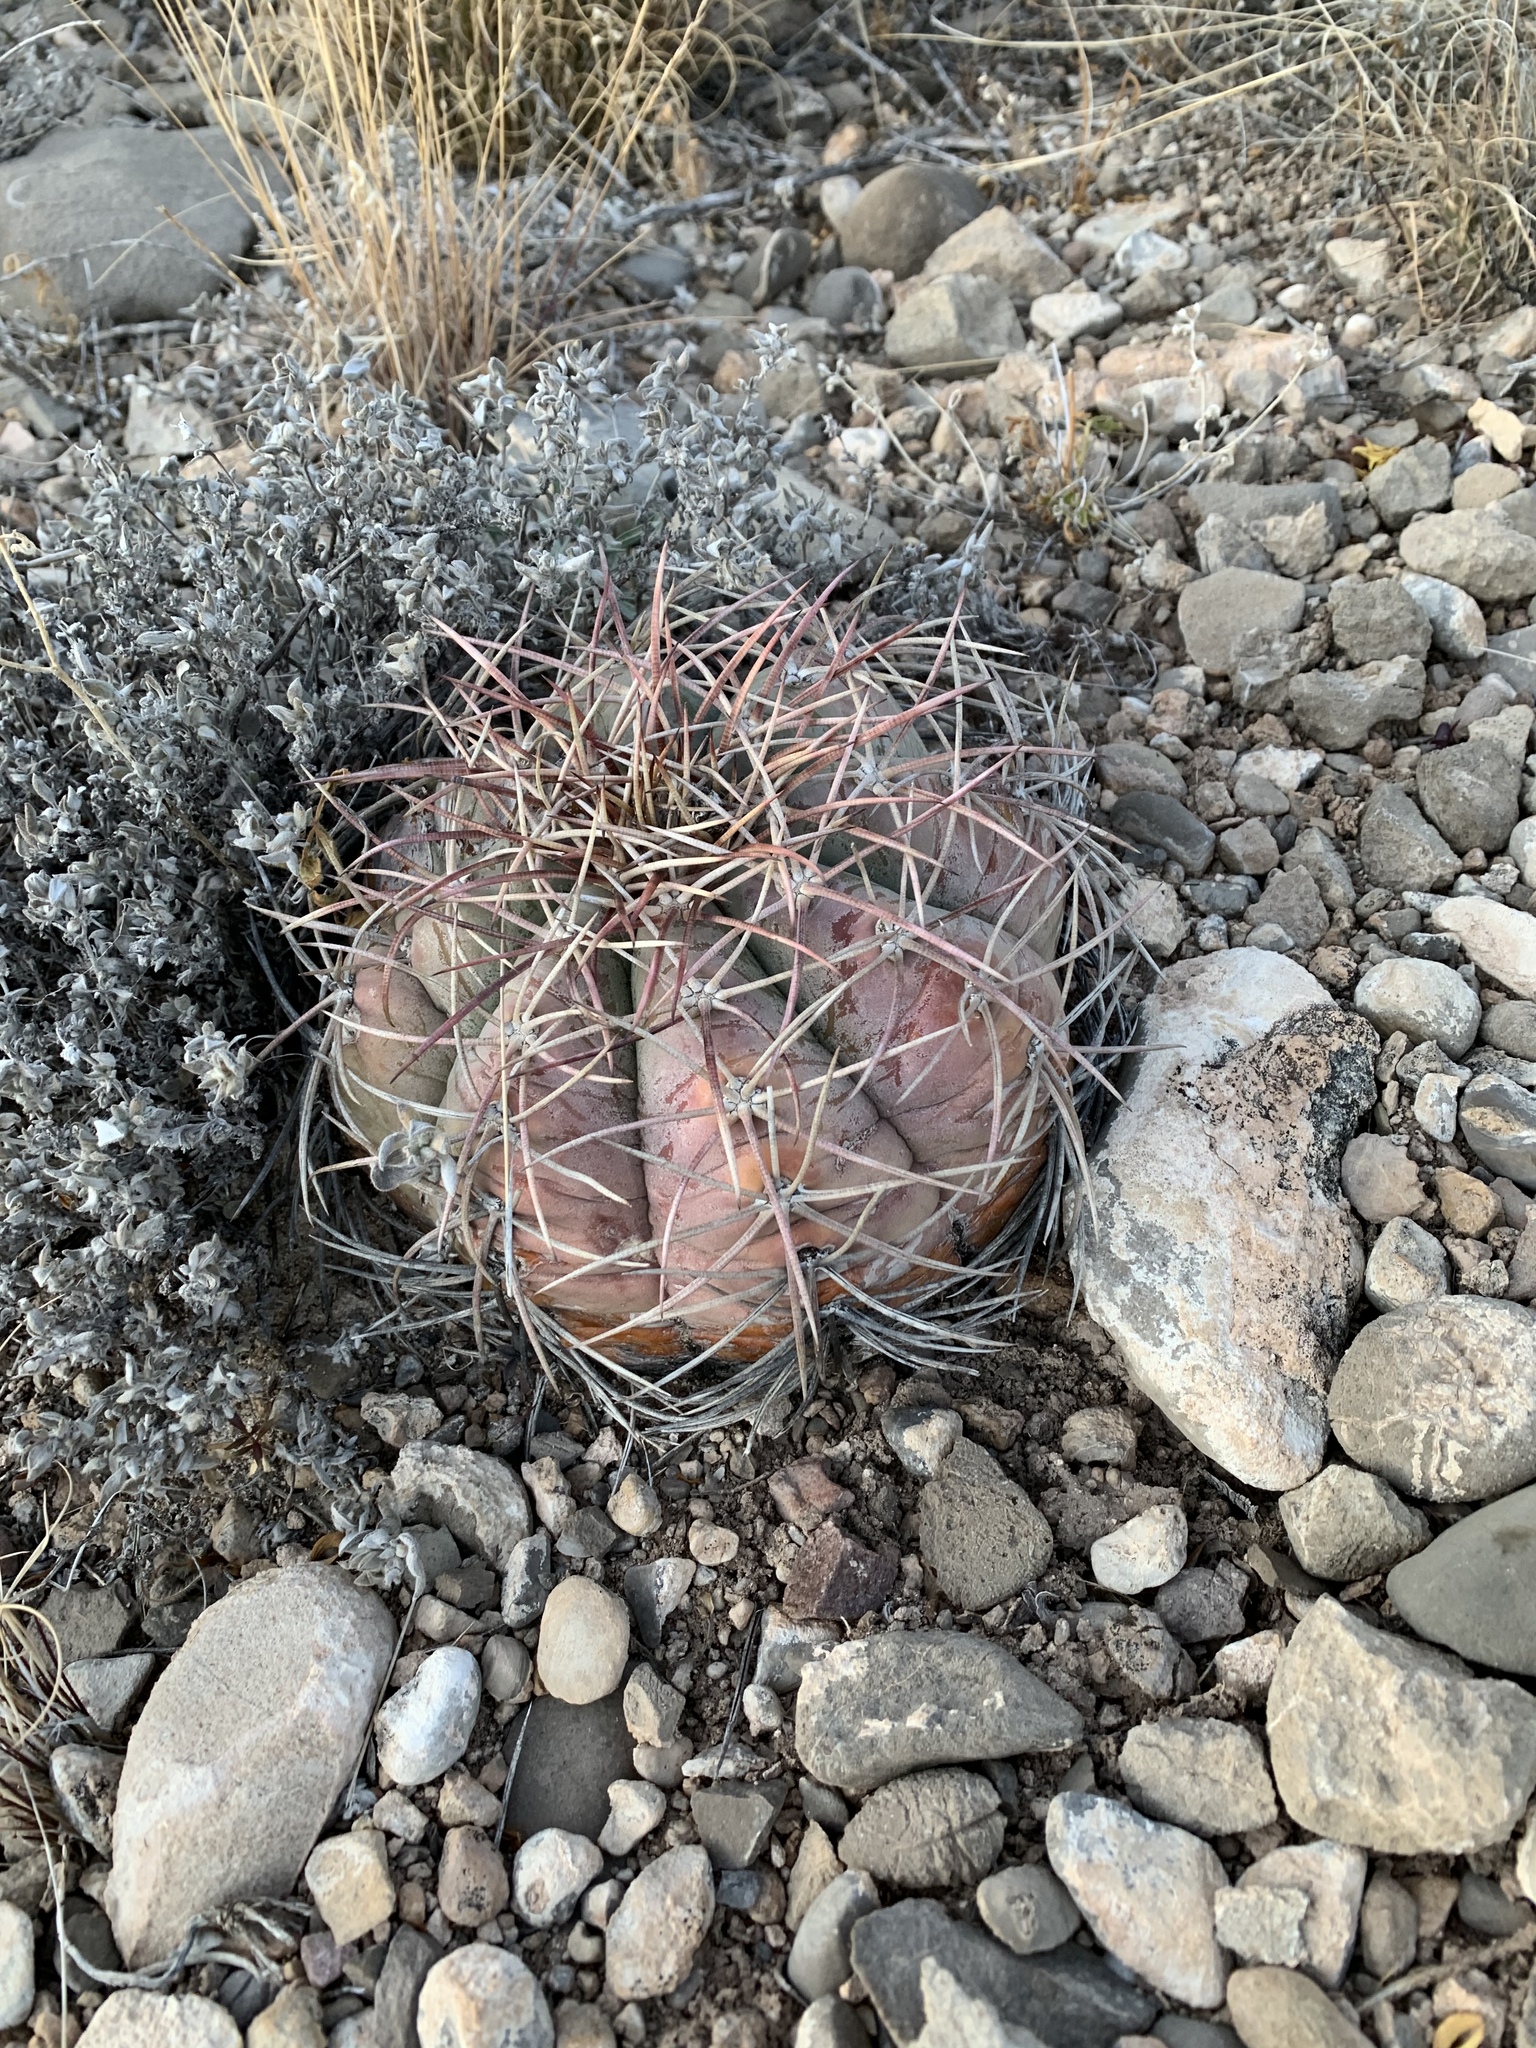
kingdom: Plantae
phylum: Tracheophyta
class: Magnoliopsida
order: Caryophyllales
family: Cactaceae
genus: Echinocactus
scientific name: Echinocactus horizonthalonius
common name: Devilshead
